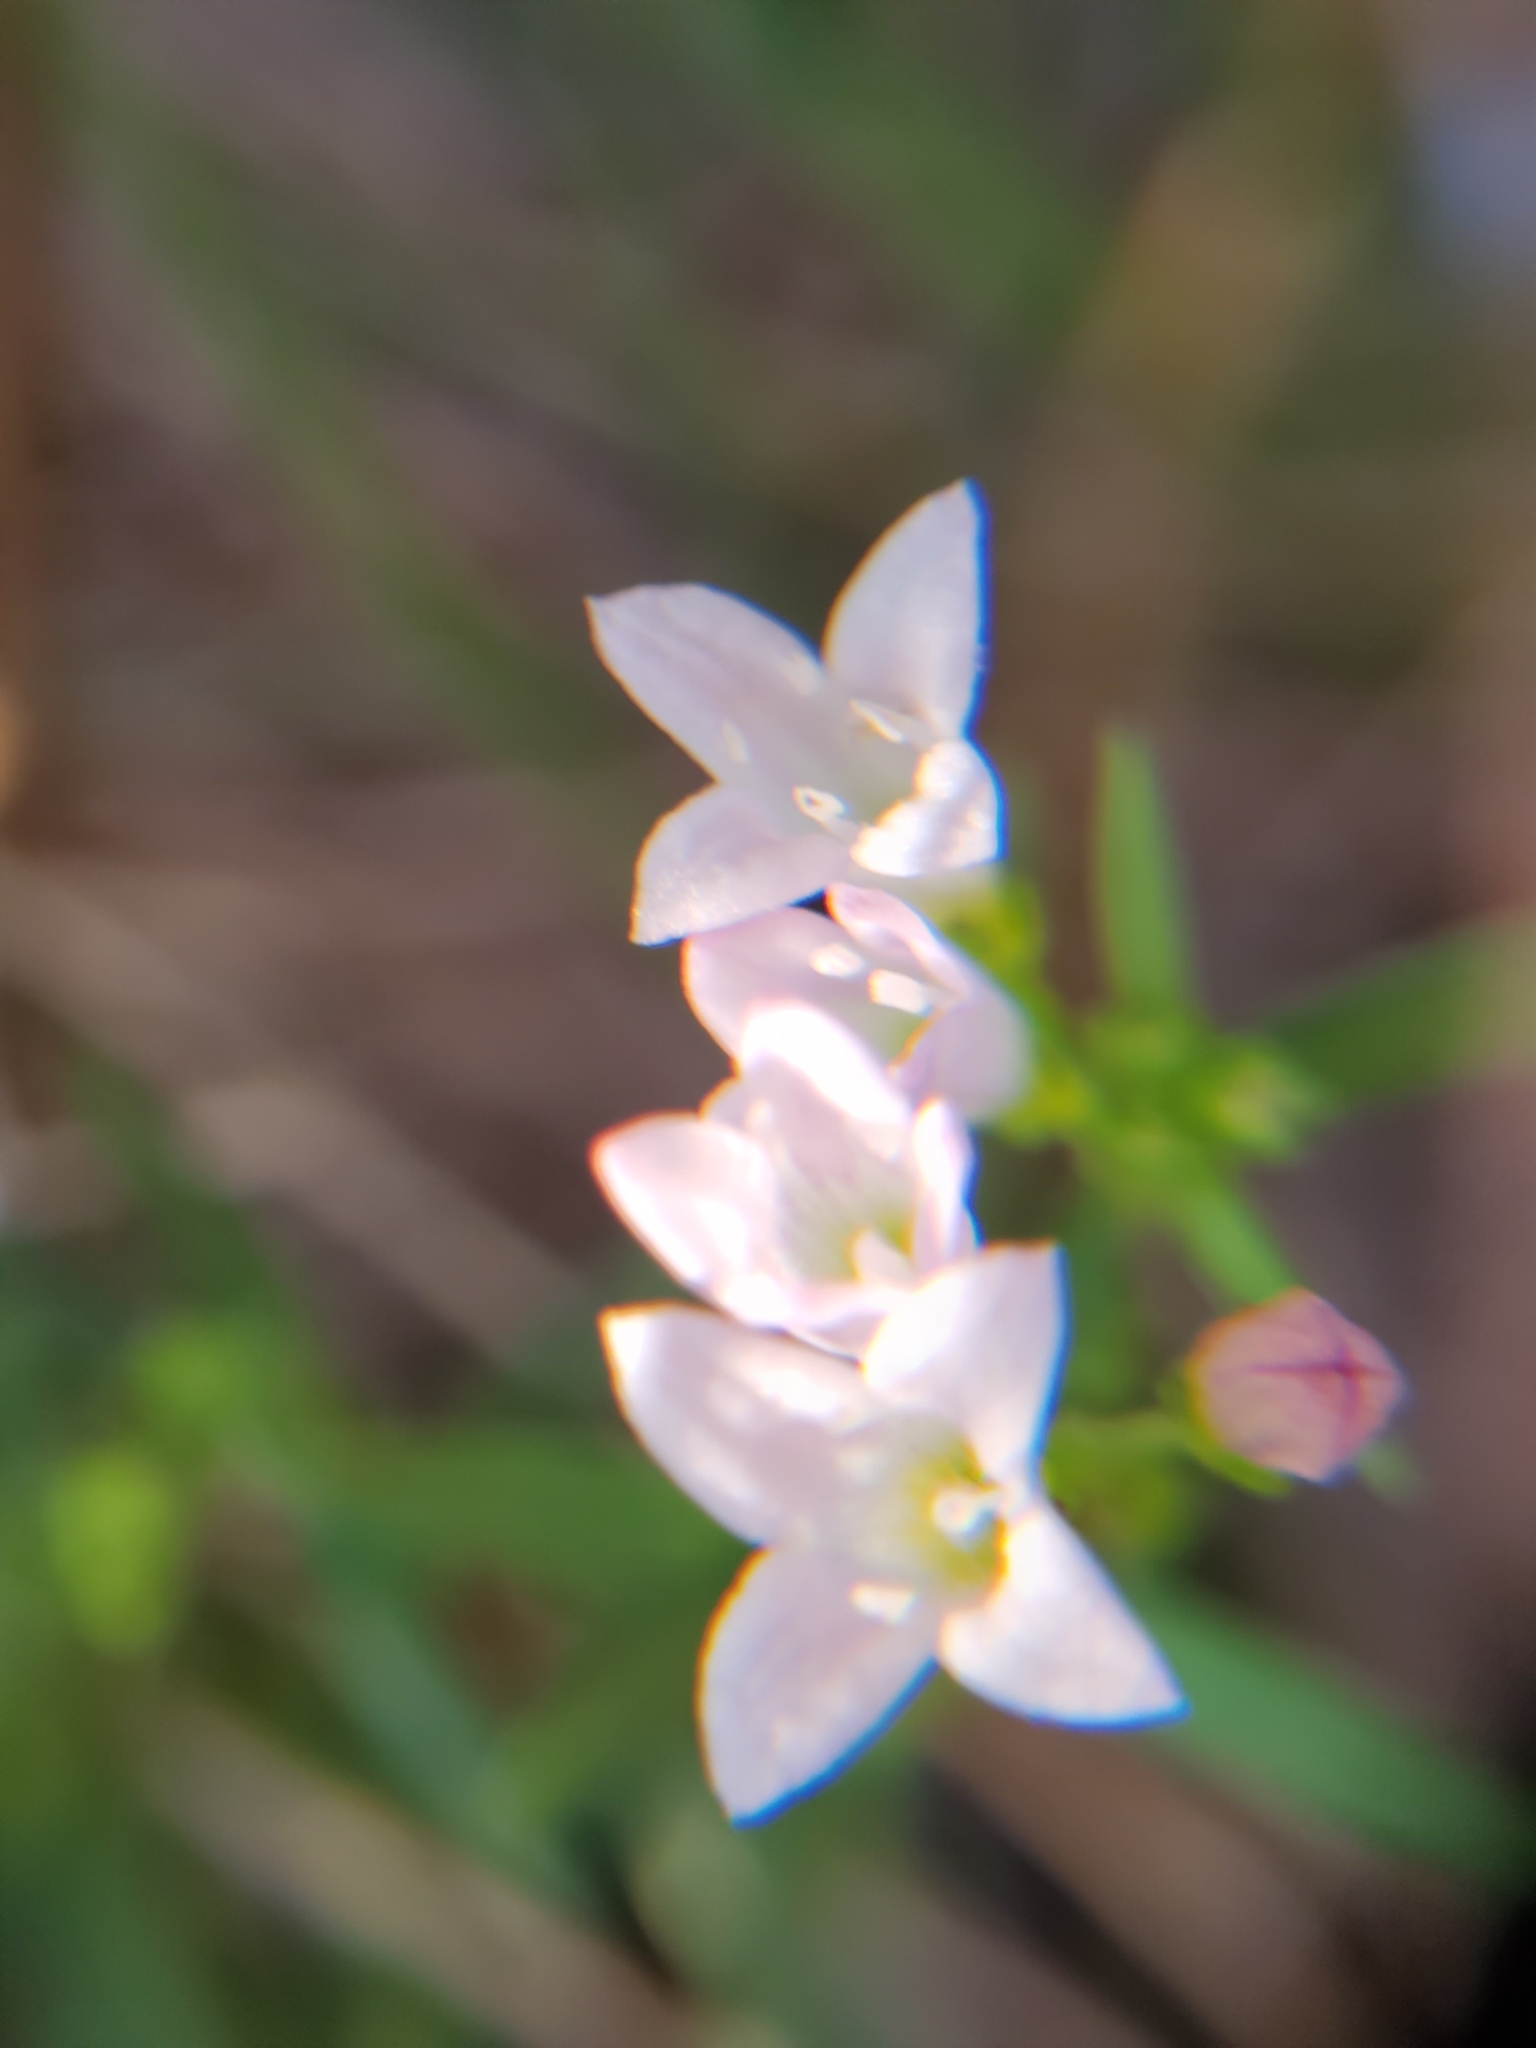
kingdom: Plantae
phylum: Tracheophyta
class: Magnoliopsida
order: Gentianales
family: Rubiaceae
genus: Houstonia
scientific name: Houstonia longifolia
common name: Long-leaved bluets
